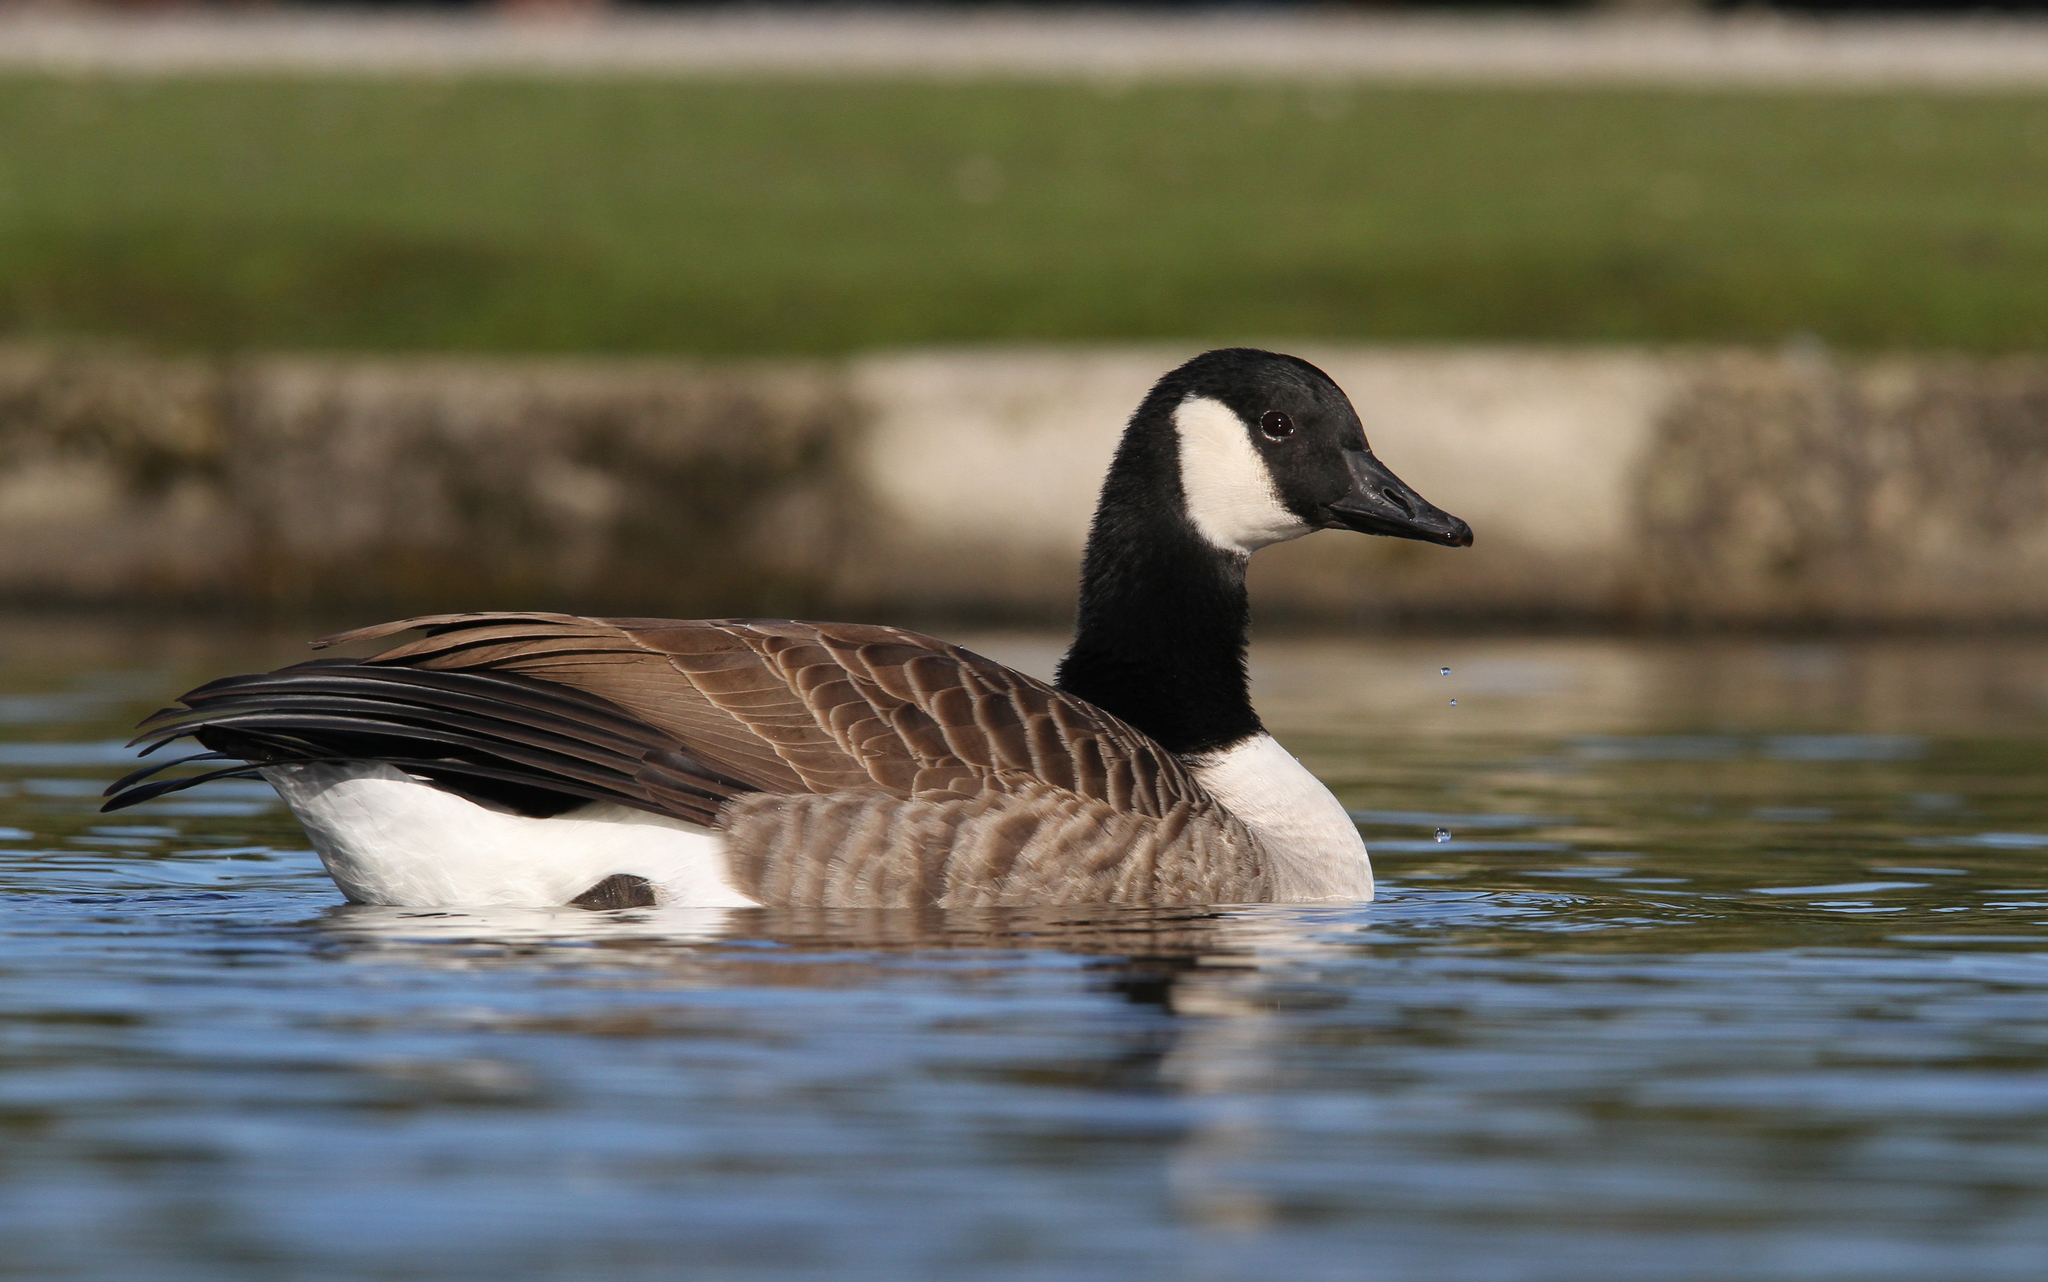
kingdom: Animalia
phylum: Chordata
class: Aves
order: Anseriformes
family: Anatidae
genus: Branta
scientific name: Branta canadensis
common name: Canada goose
